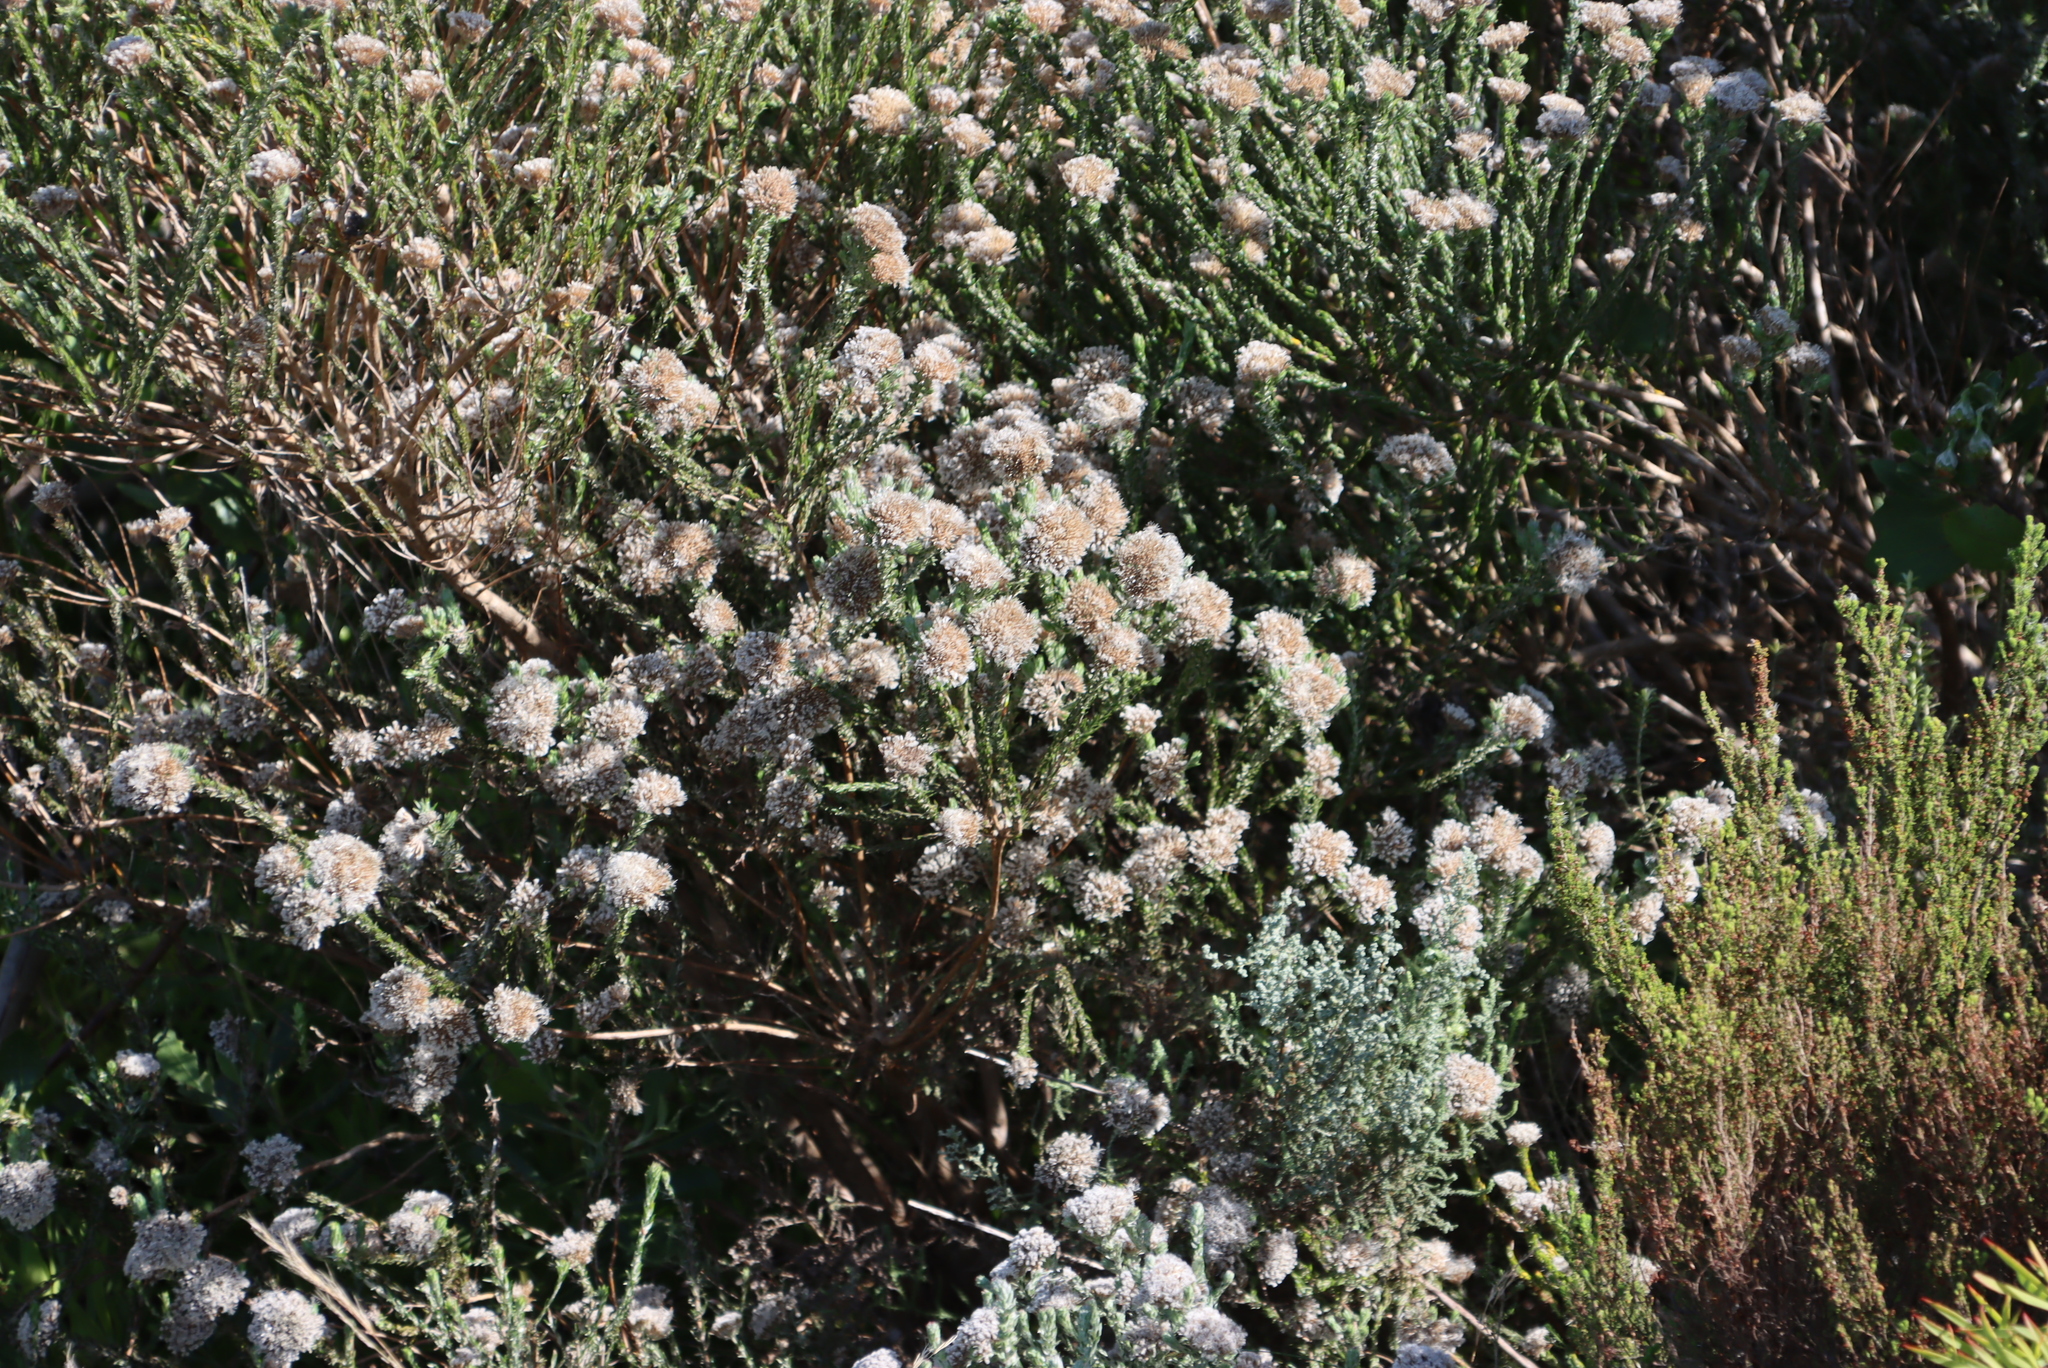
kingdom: Plantae
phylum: Tracheophyta
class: Magnoliopsida
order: Asterales
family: Asteraceae
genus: Metalasia
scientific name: Metalasia pungens
